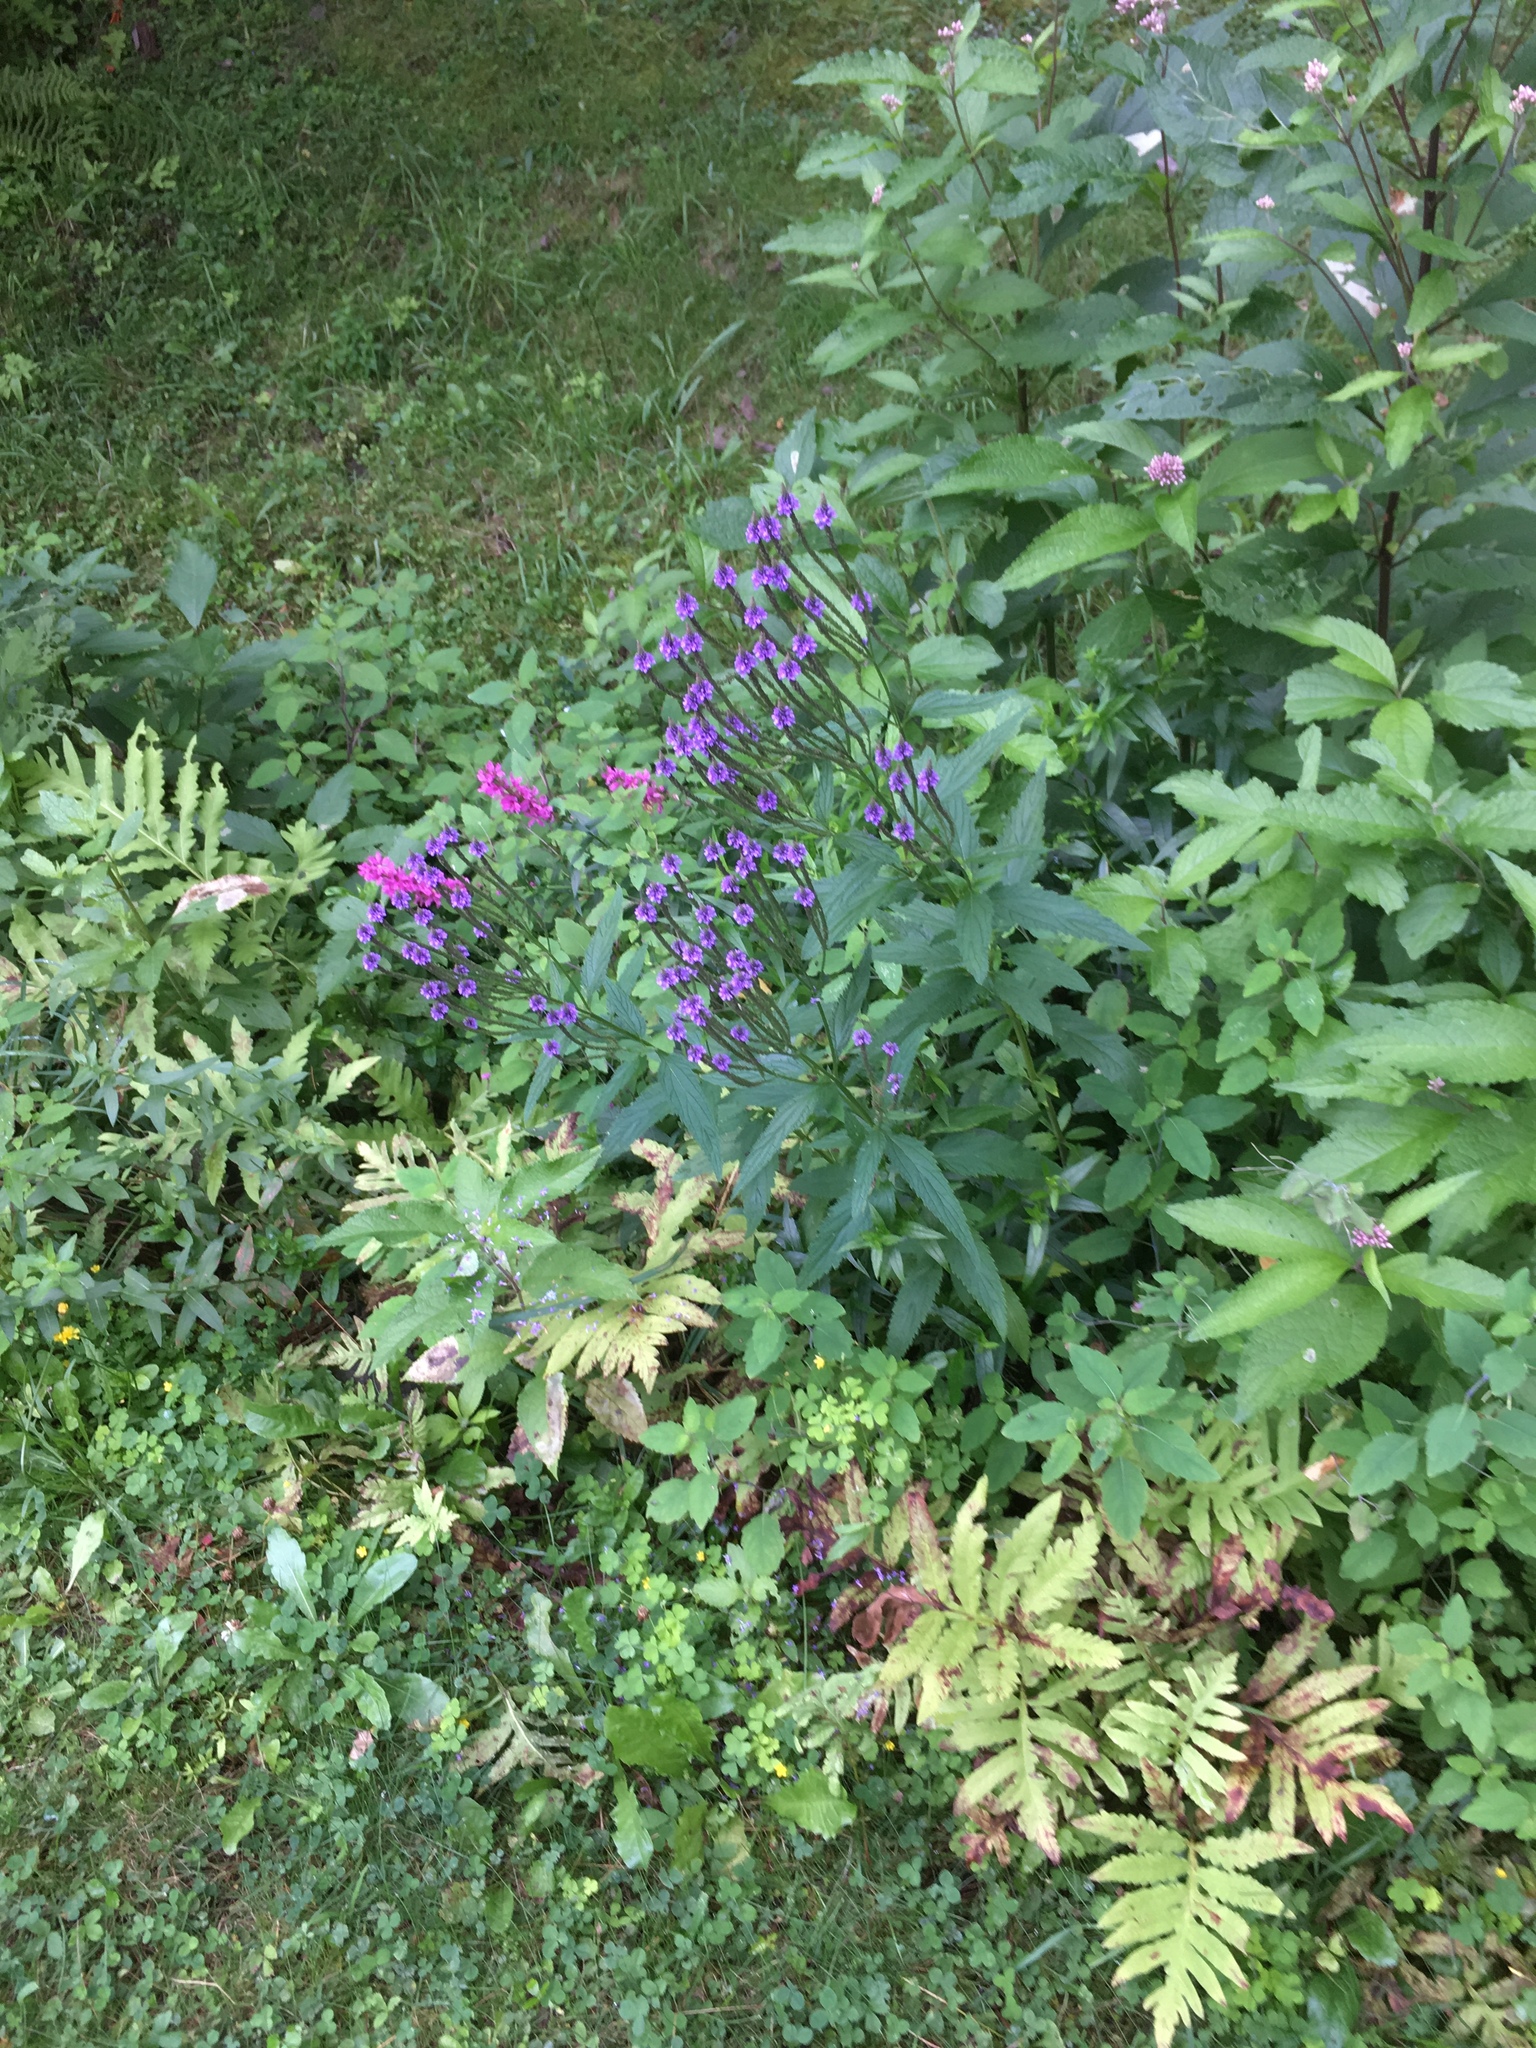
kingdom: Plantae
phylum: Tracheophyta
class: Magnoliopsida
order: Lamiales
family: Verbenaceae
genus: Verbena
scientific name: Verbena hastata
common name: American blue vervain
